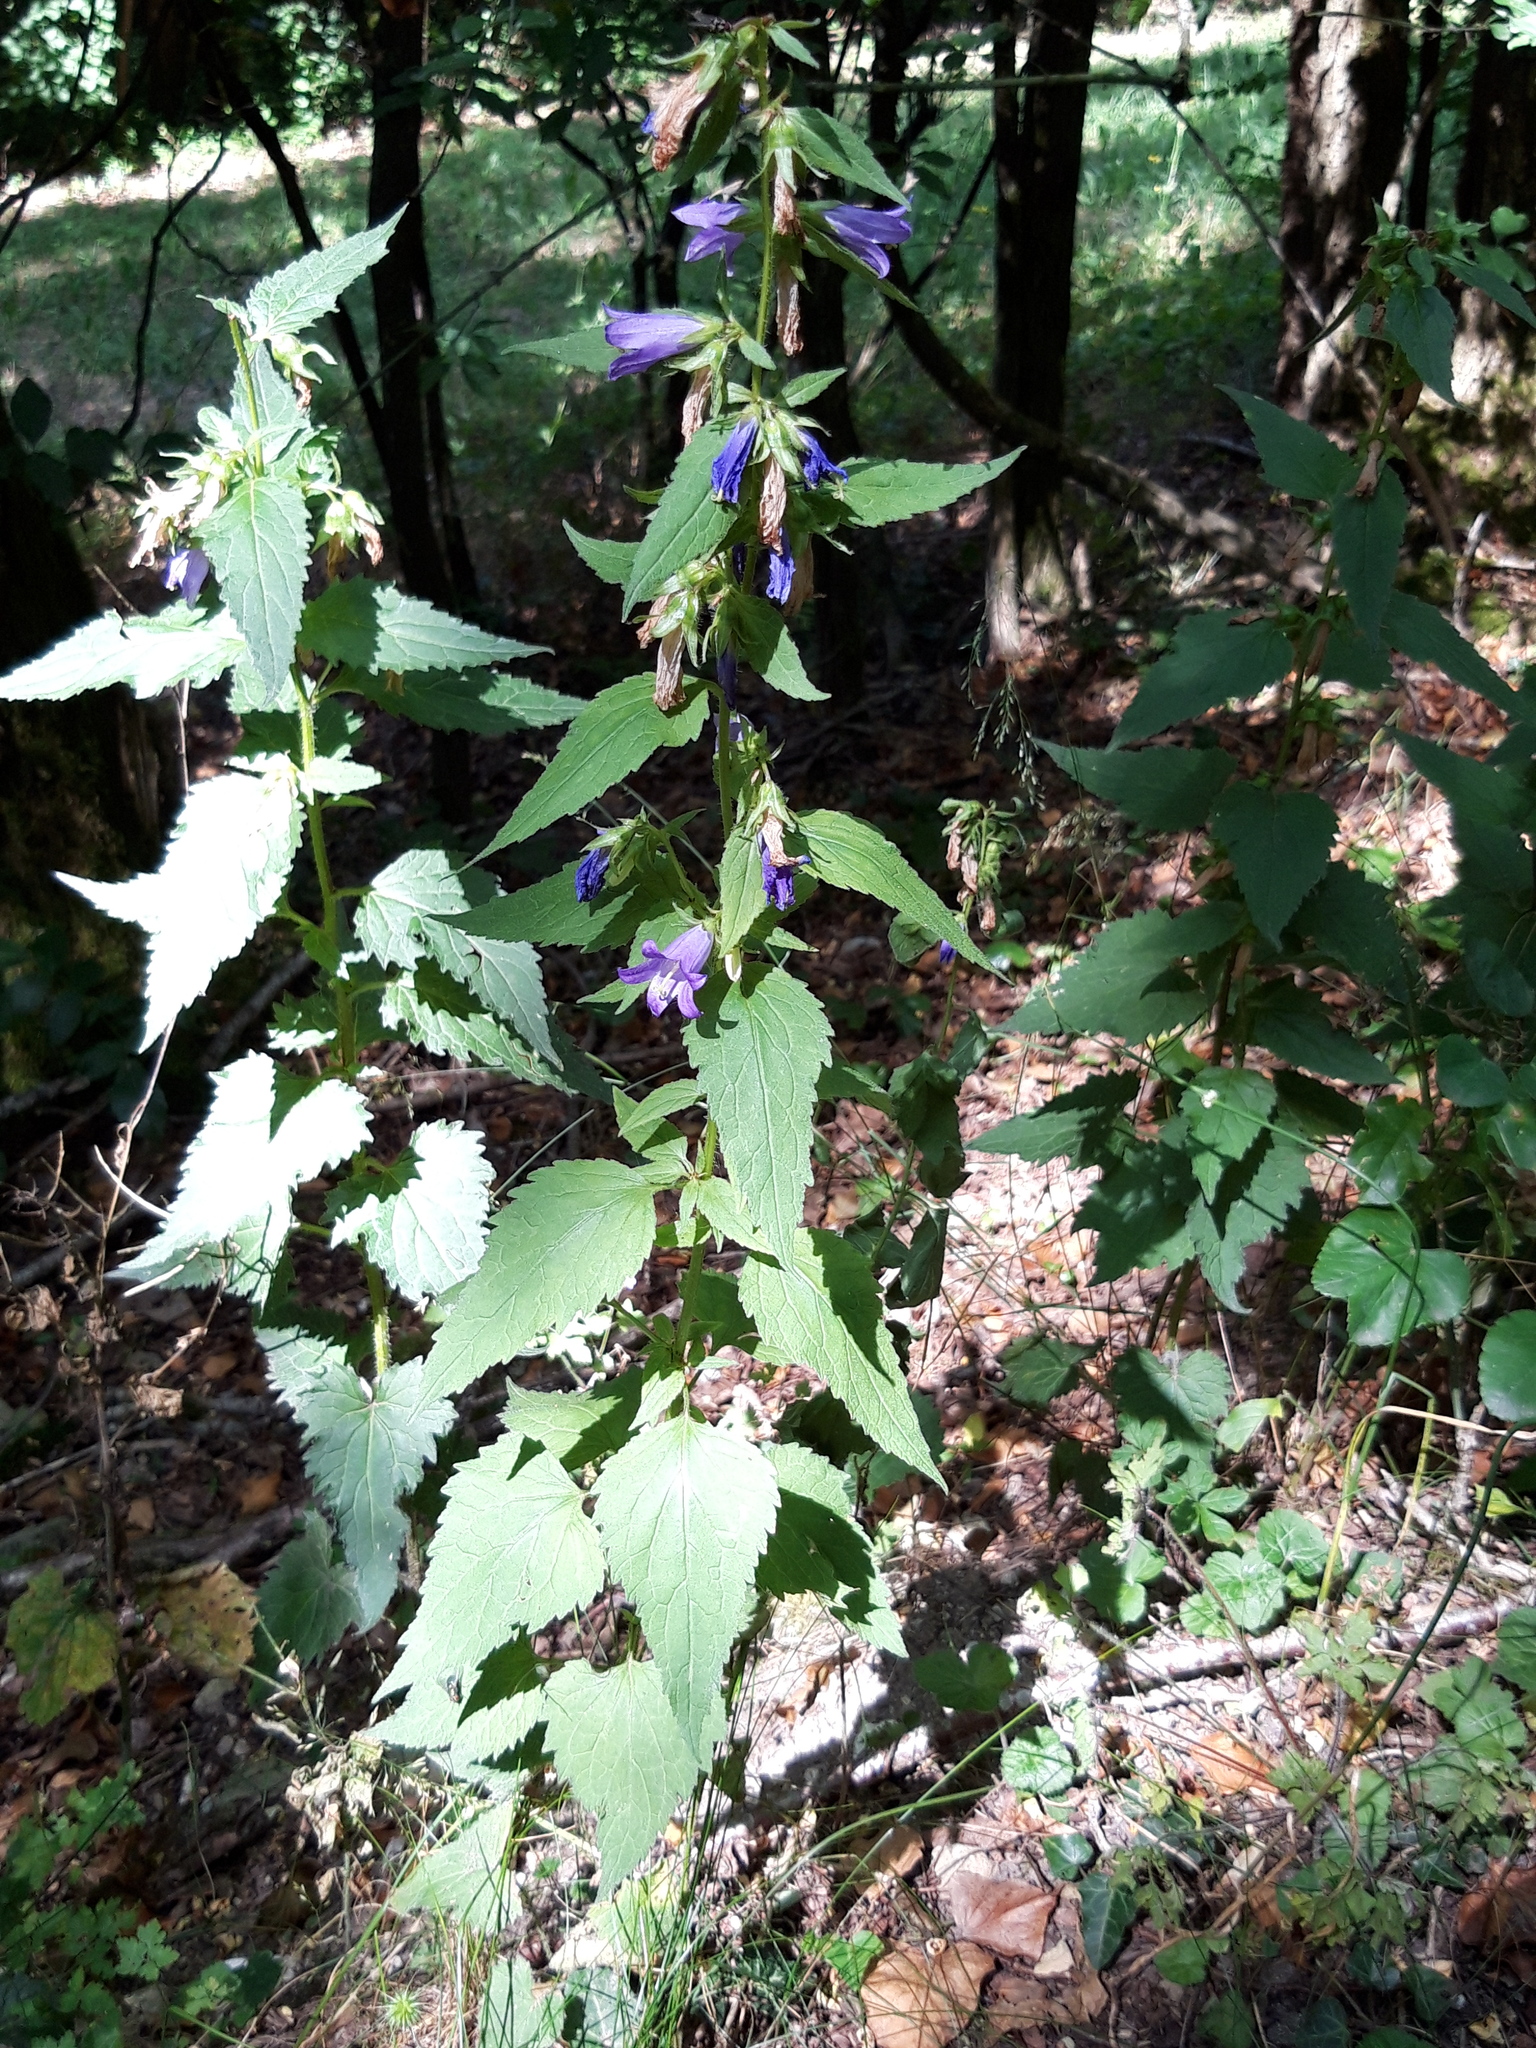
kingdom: Plantae
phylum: Tracheophyta
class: Magnoliopsida
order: Asterales
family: Campanulaceae
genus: Campanula
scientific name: Campanula trachelium
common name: Nettle-leaved bellflower
